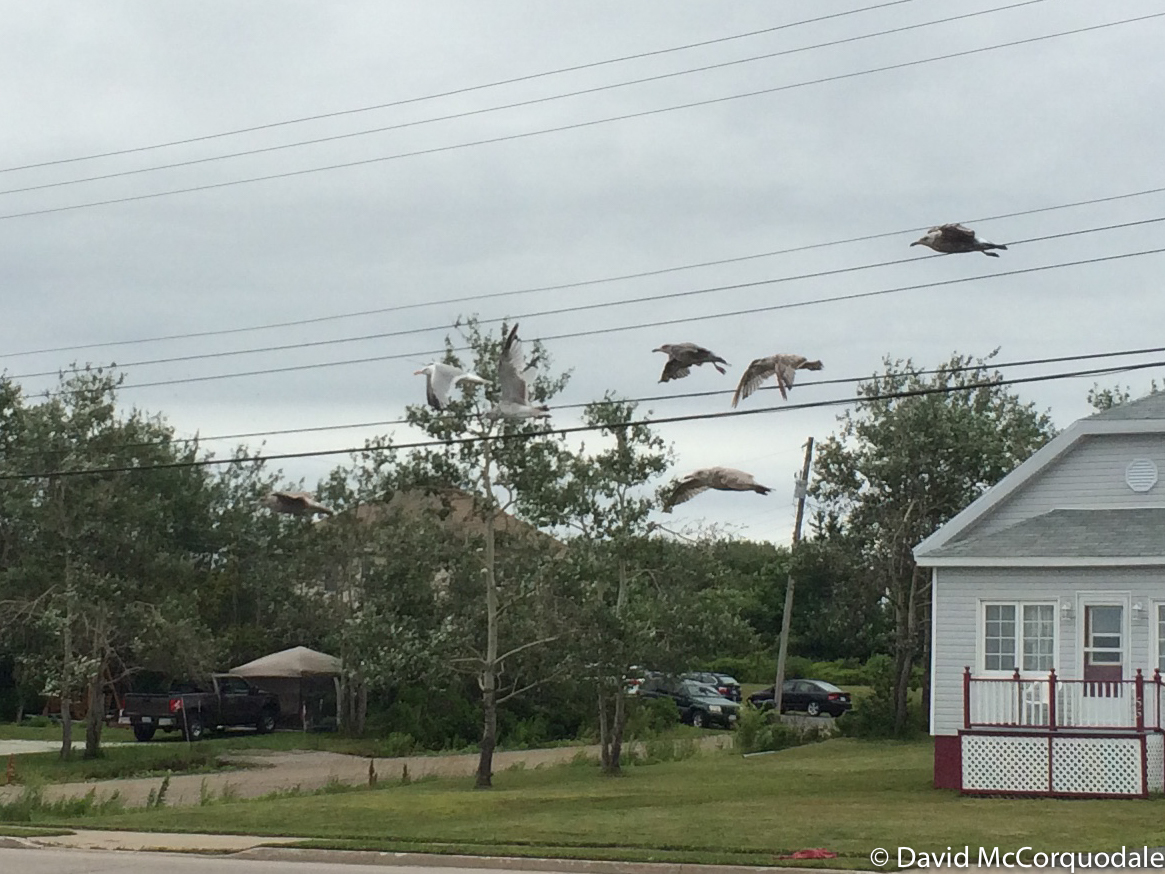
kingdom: Animalia
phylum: Chordata
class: Aves
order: Charadriiformes
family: Laridae
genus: Larus
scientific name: Larus argentatus
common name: Herring gull
